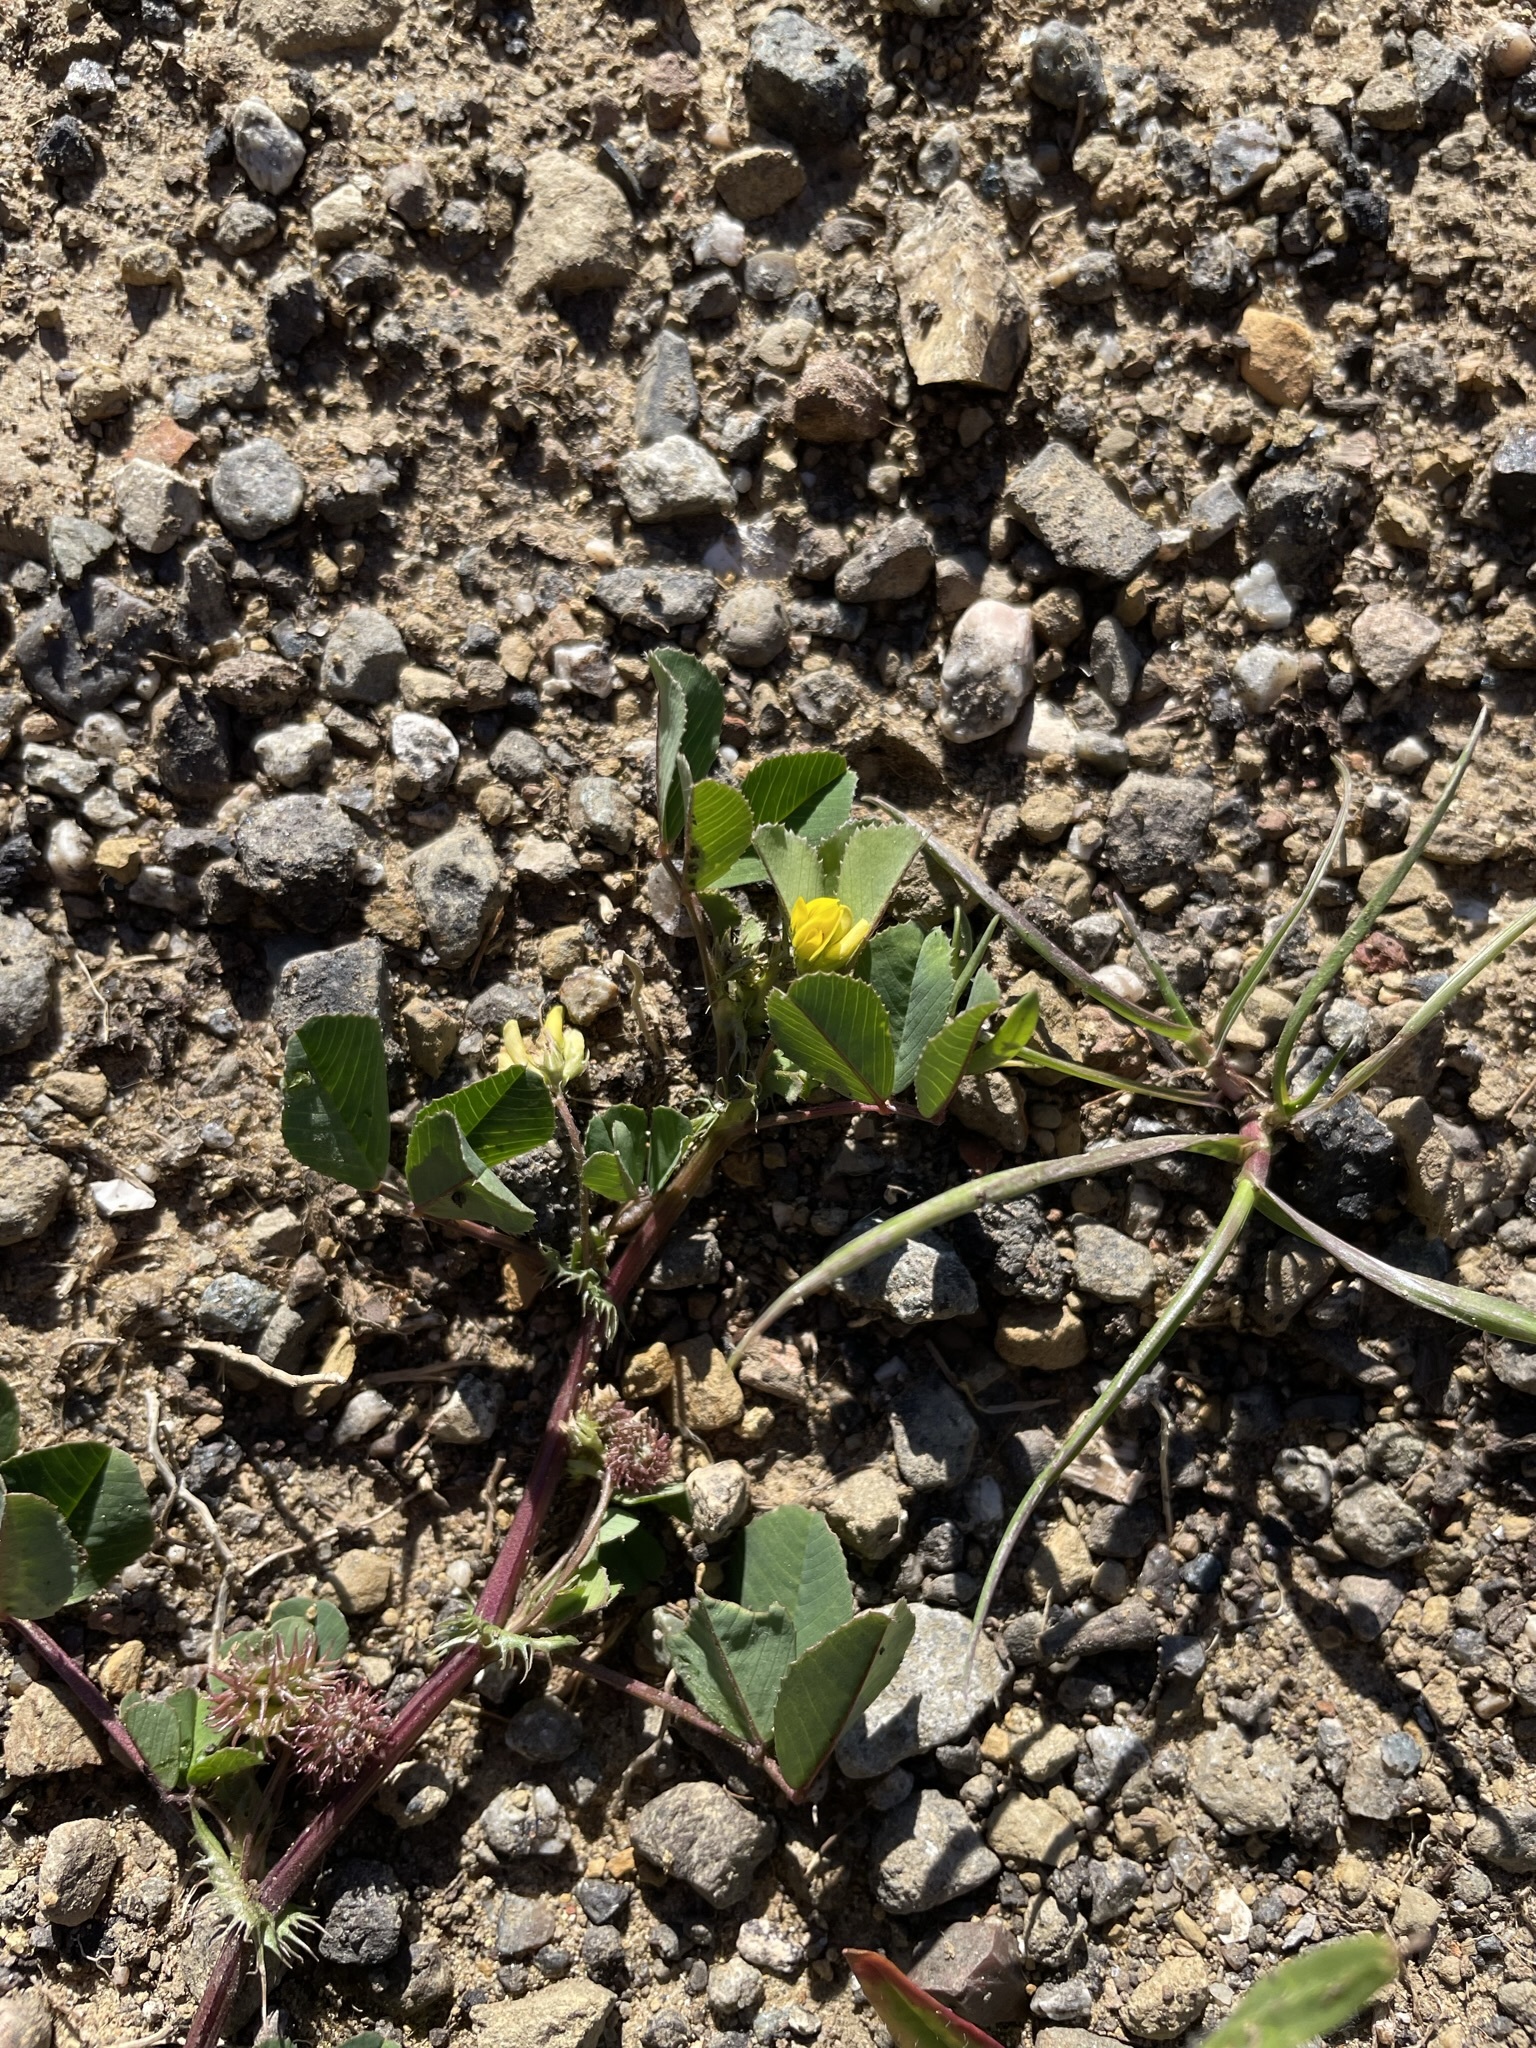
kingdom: Plantae
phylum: Tracheophyta
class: Magnoliopsida
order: Fabales
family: Fabaceae
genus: Medicago
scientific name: Medicago polymorpha
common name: Burclover
